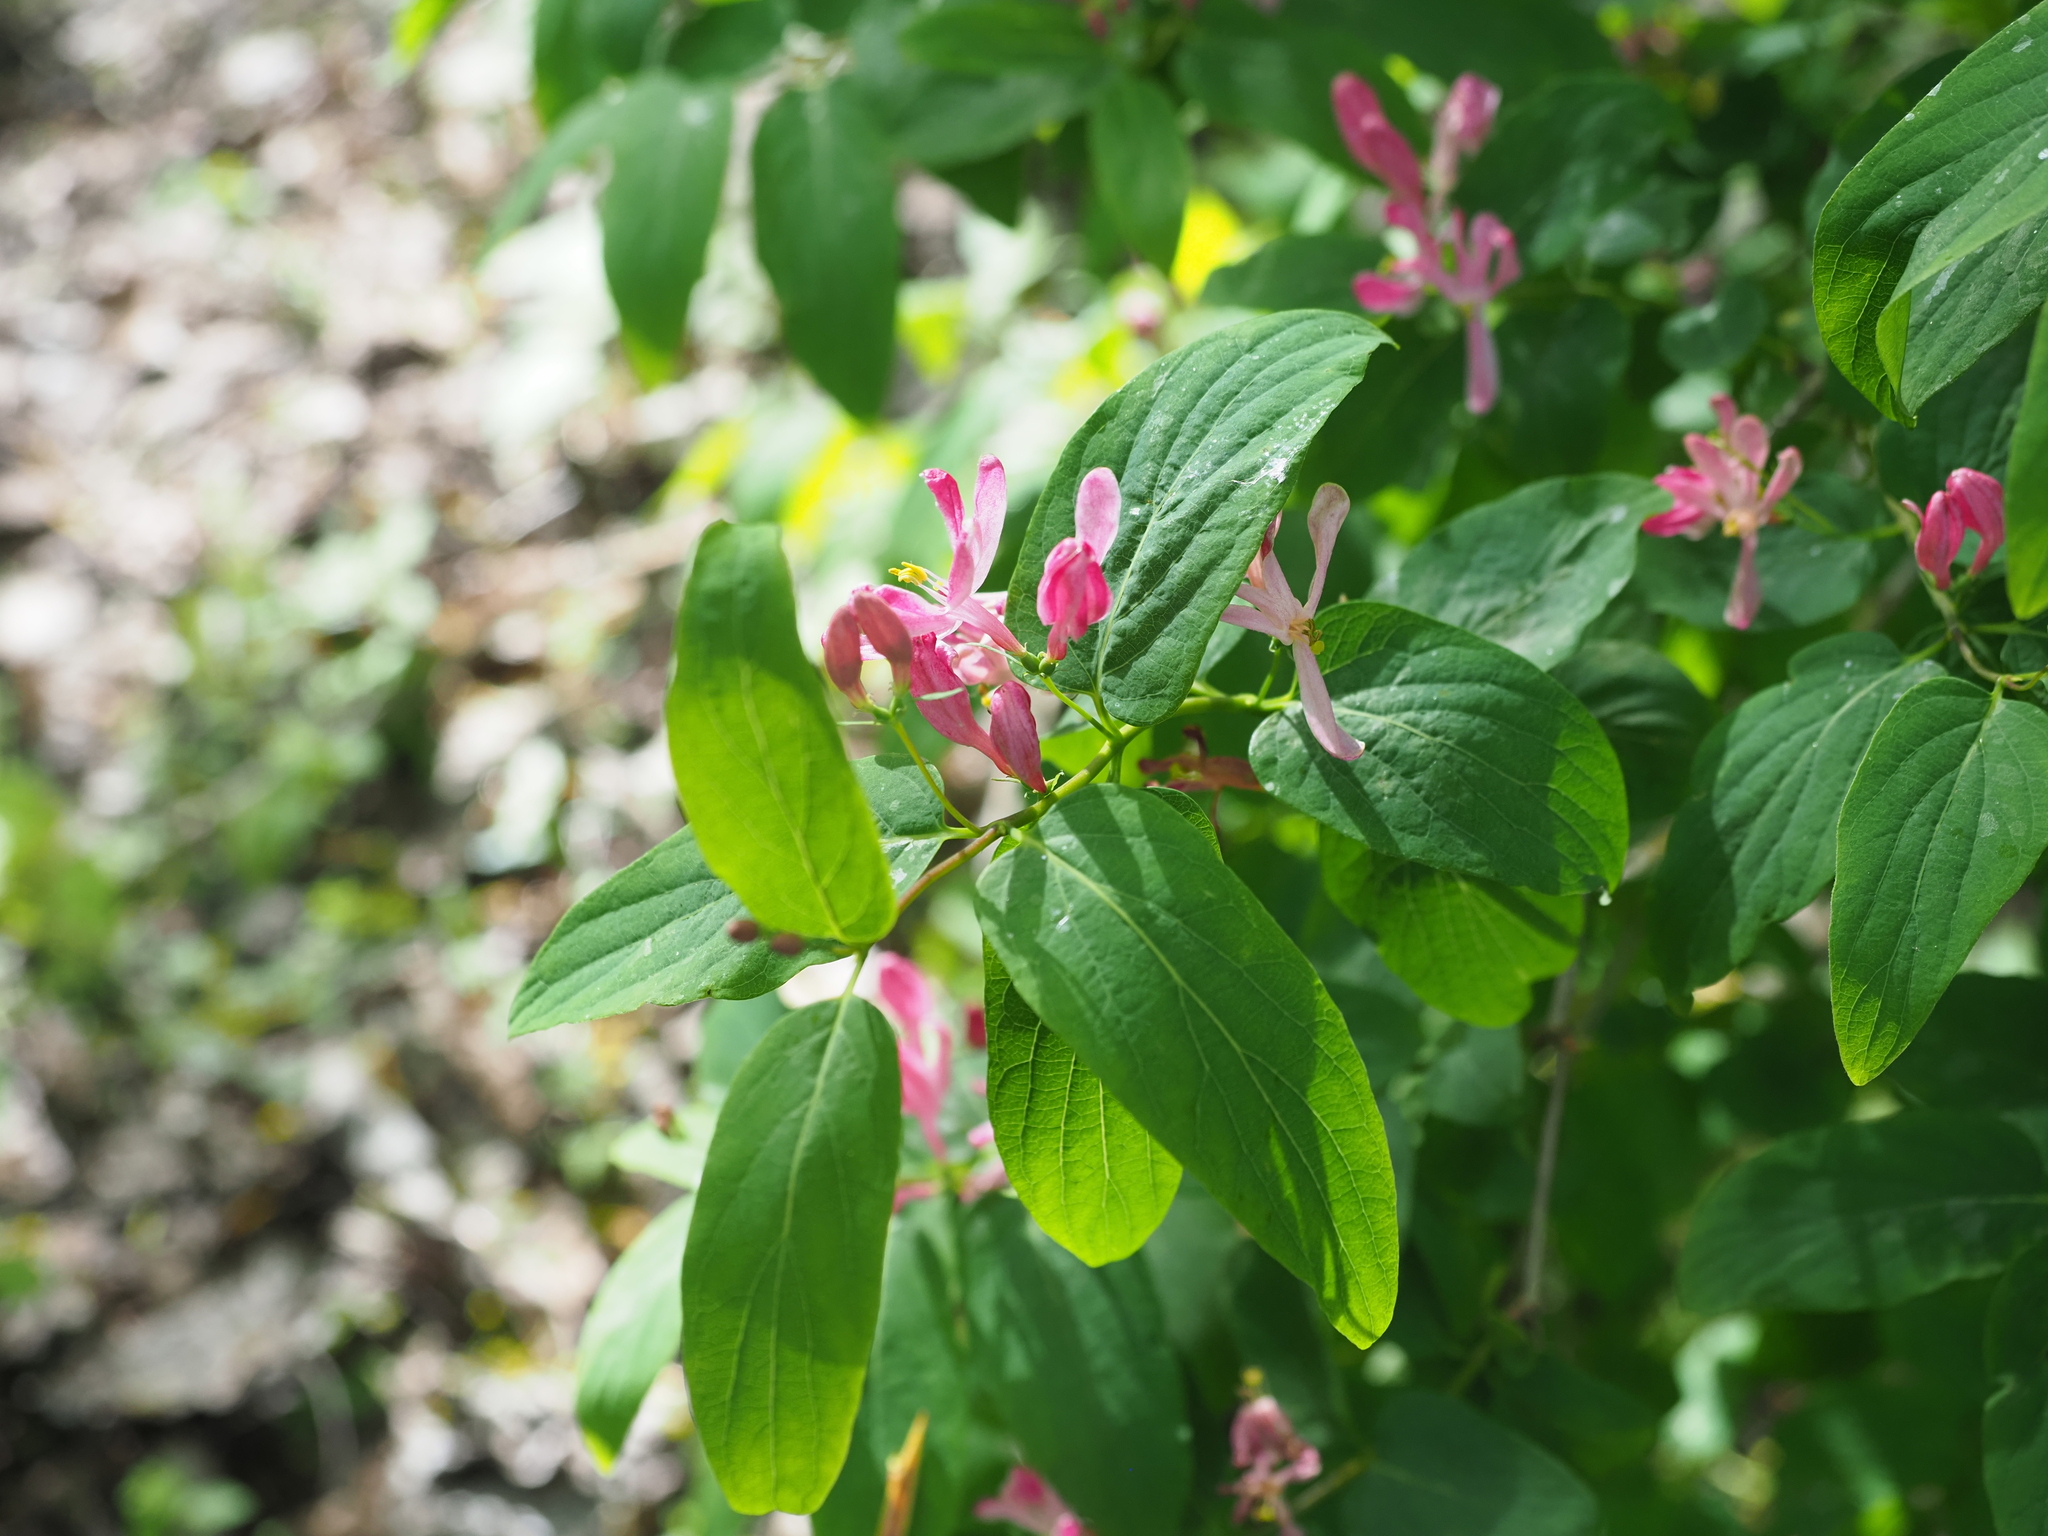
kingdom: Plantae
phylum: Tracheophyta
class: Magnoliopsida
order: Dipsacales
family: Caprifoliaceae
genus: Lonicera
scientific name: Lonicera tatarica
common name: Tatarian honeysuckle
